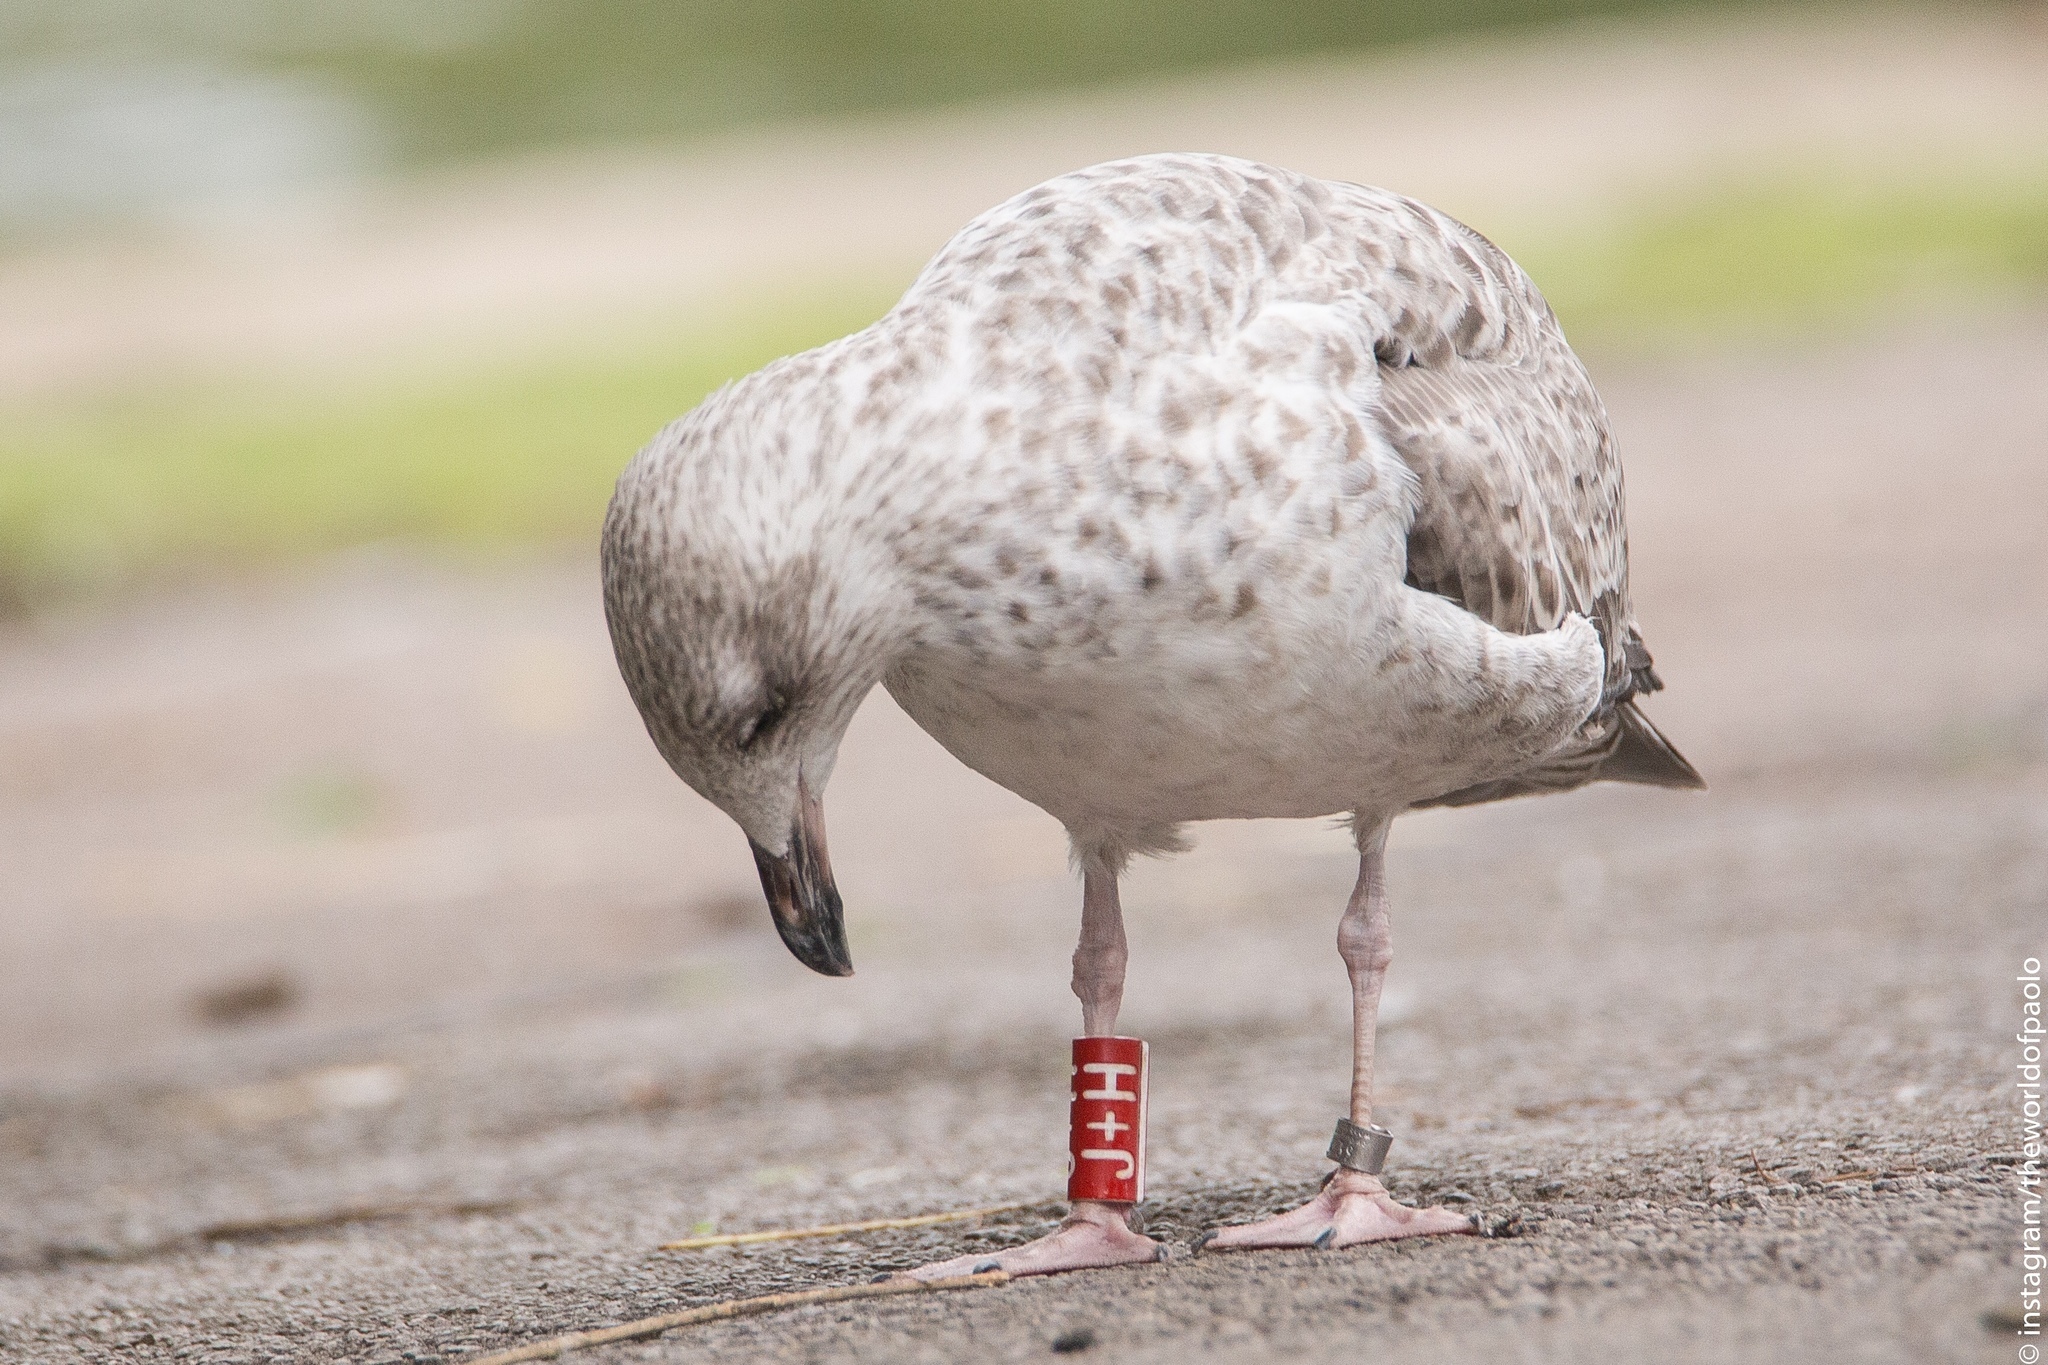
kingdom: Animalia
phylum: Chordata
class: Aves
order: Charadriiformes
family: Laridae
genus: Larus
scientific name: Larus argentatus
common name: Herring gull
